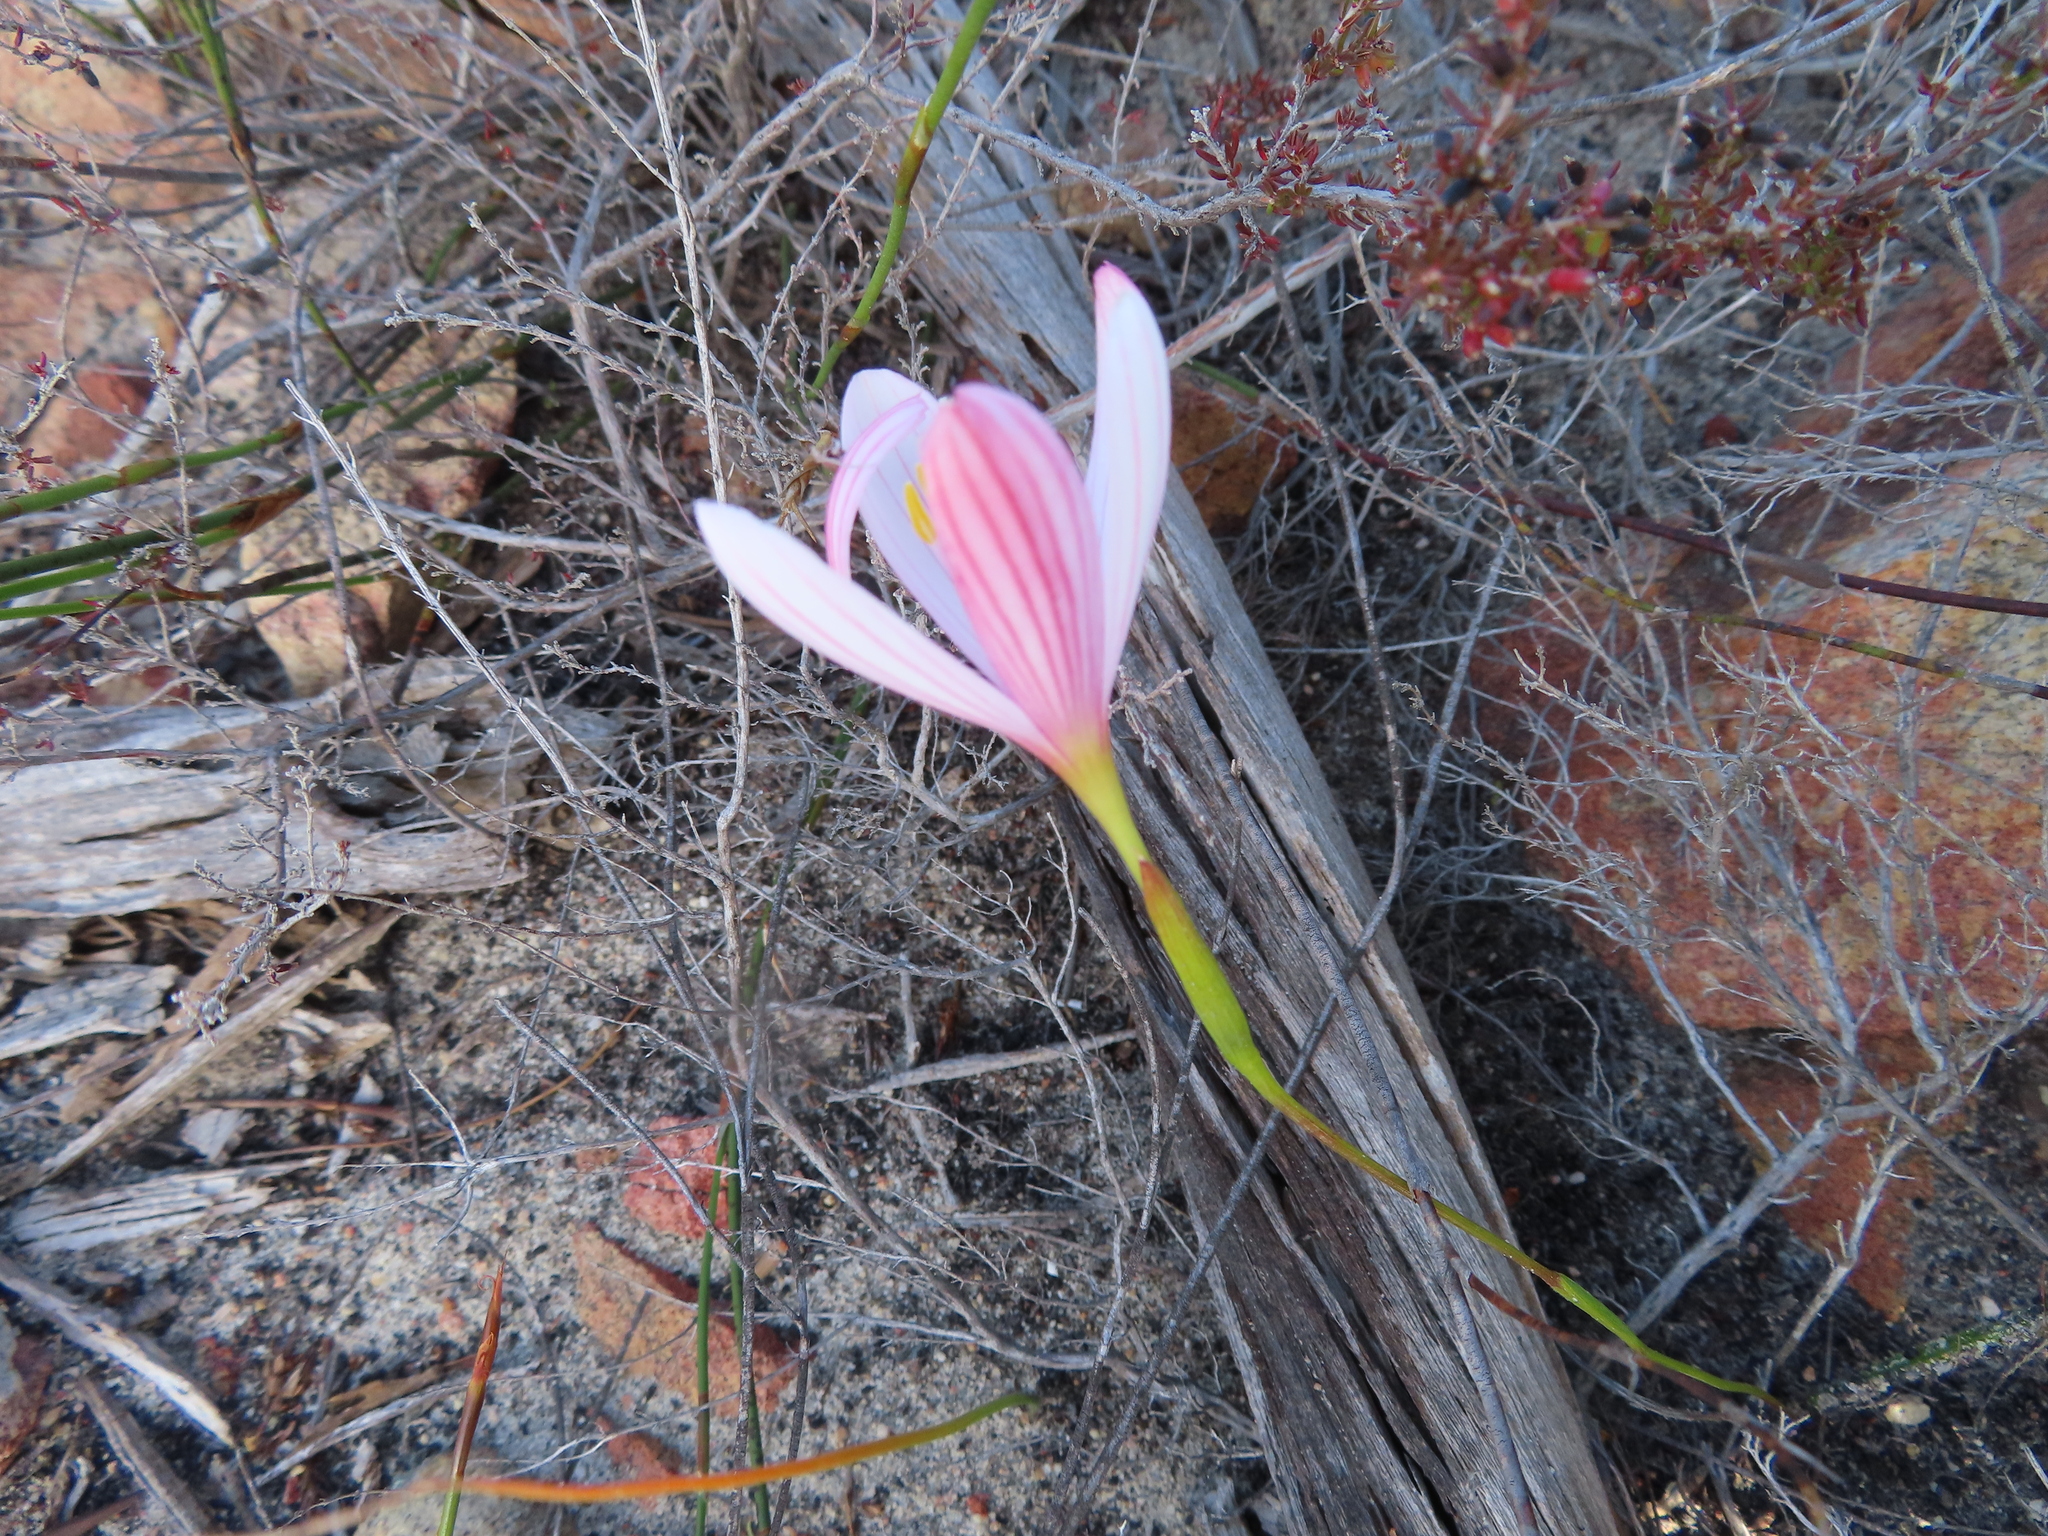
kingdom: Plantae
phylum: Tracheophyta
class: Liliopsida
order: Asparagales
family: Iridaceae
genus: Geissorhiza
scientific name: Geissorhiza schinzii
